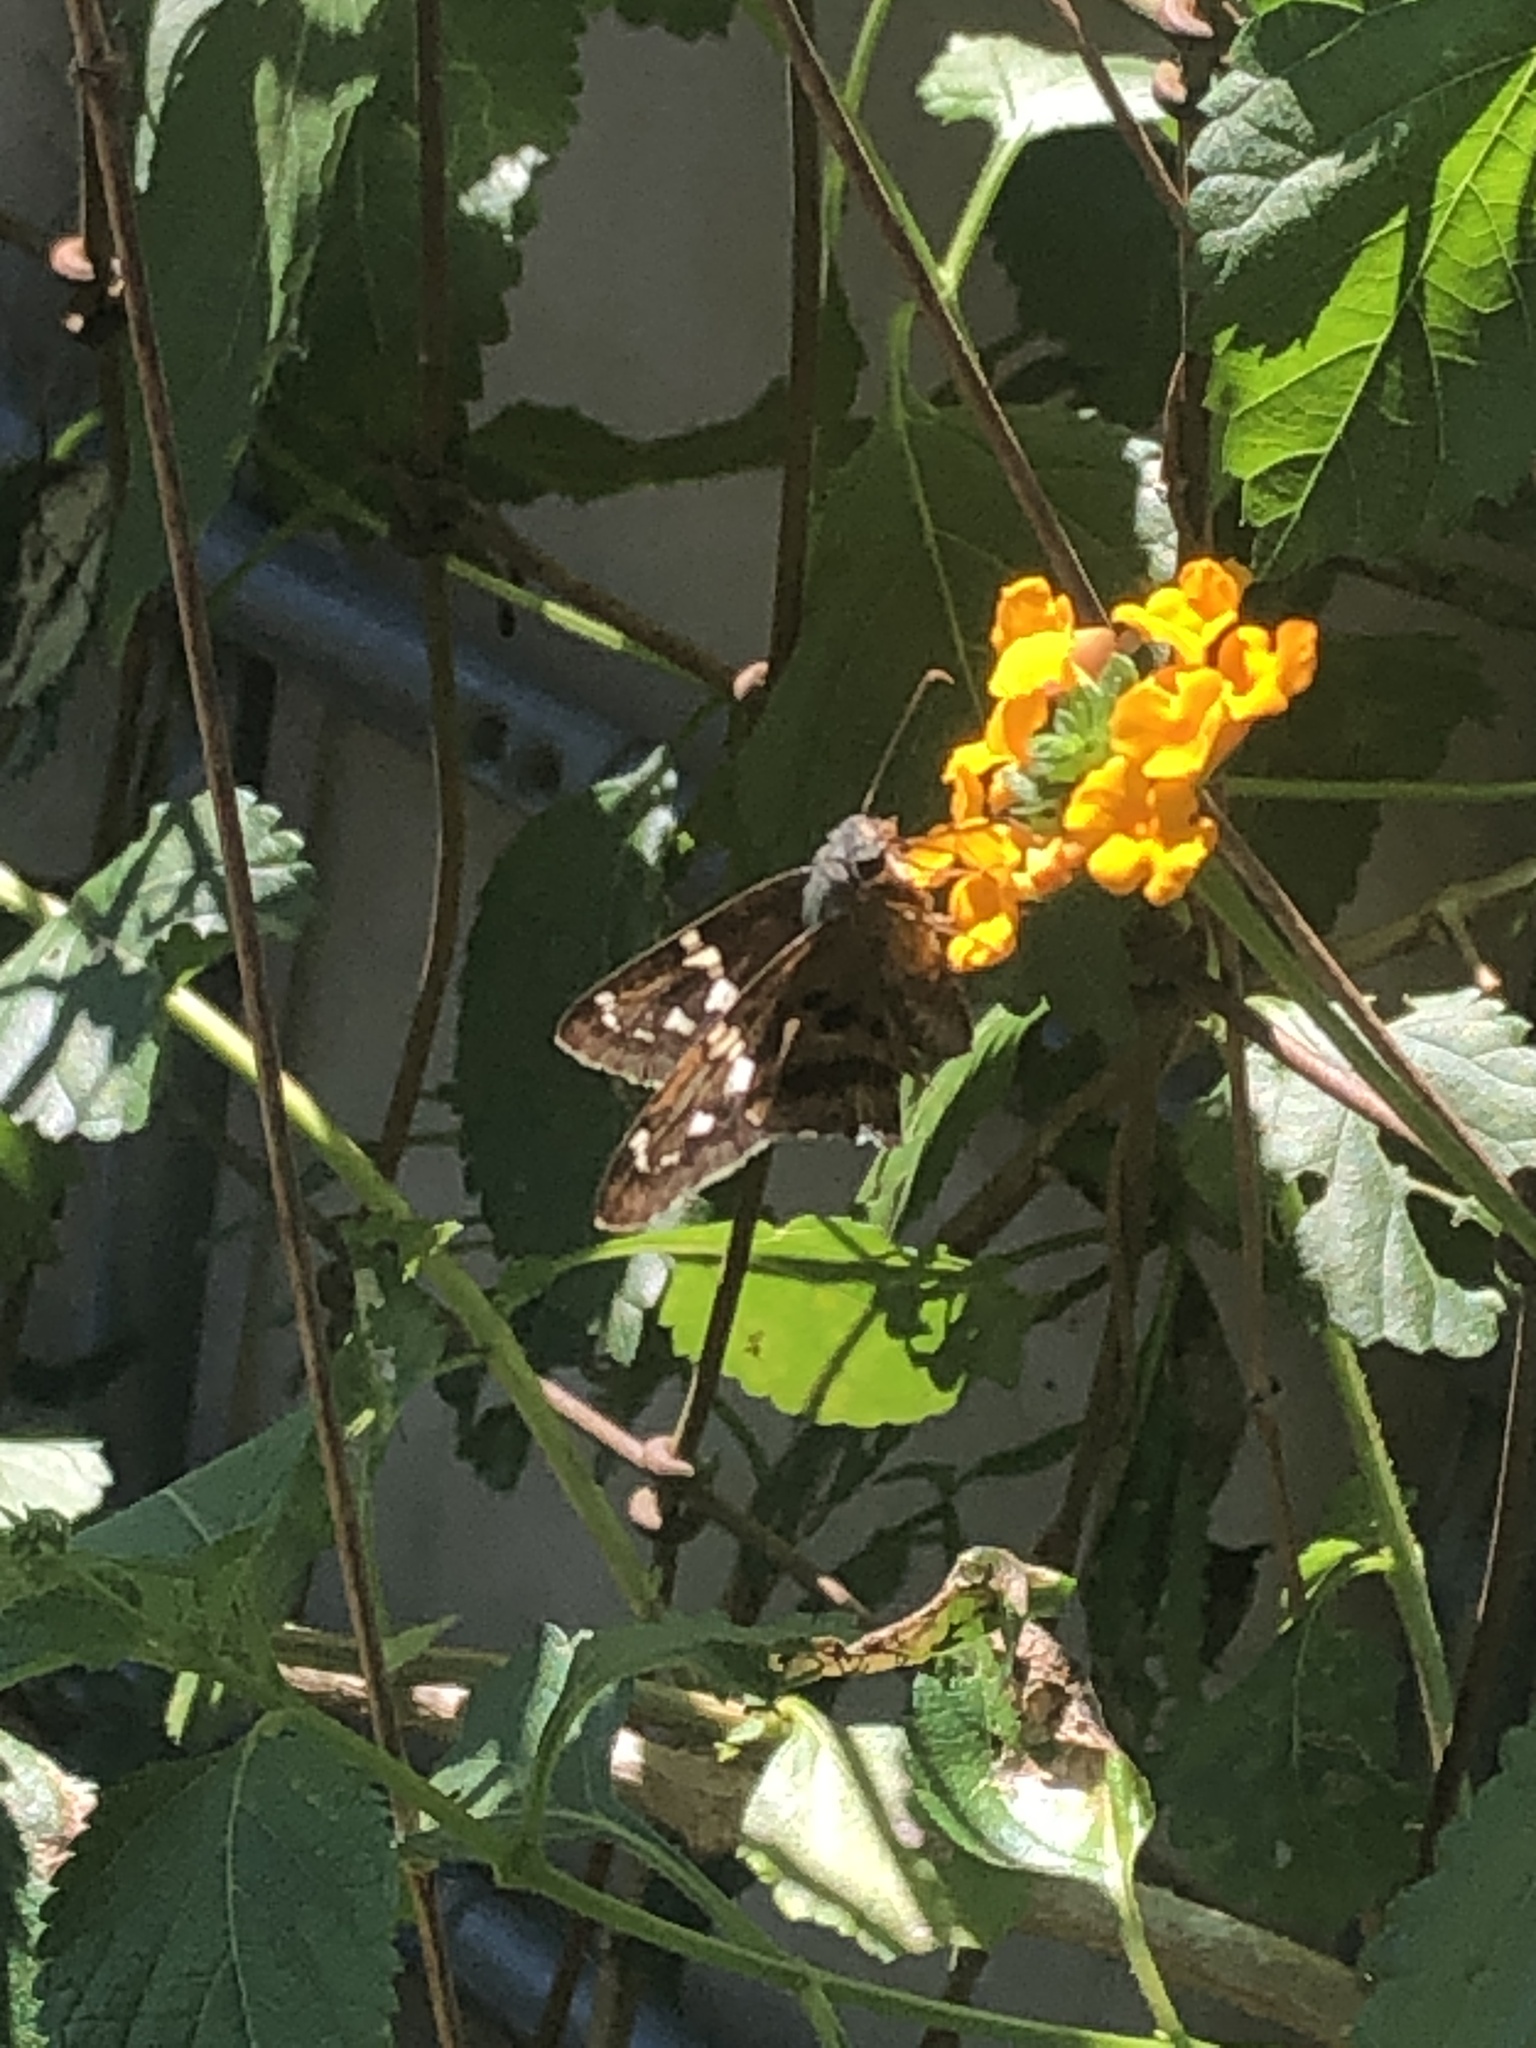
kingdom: Animalia
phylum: Arthropoda
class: Insecta
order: Lepidoptera
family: Hesperiidae
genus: Urbanus
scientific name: Urbanus proteus
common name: Long-tailed skipper
